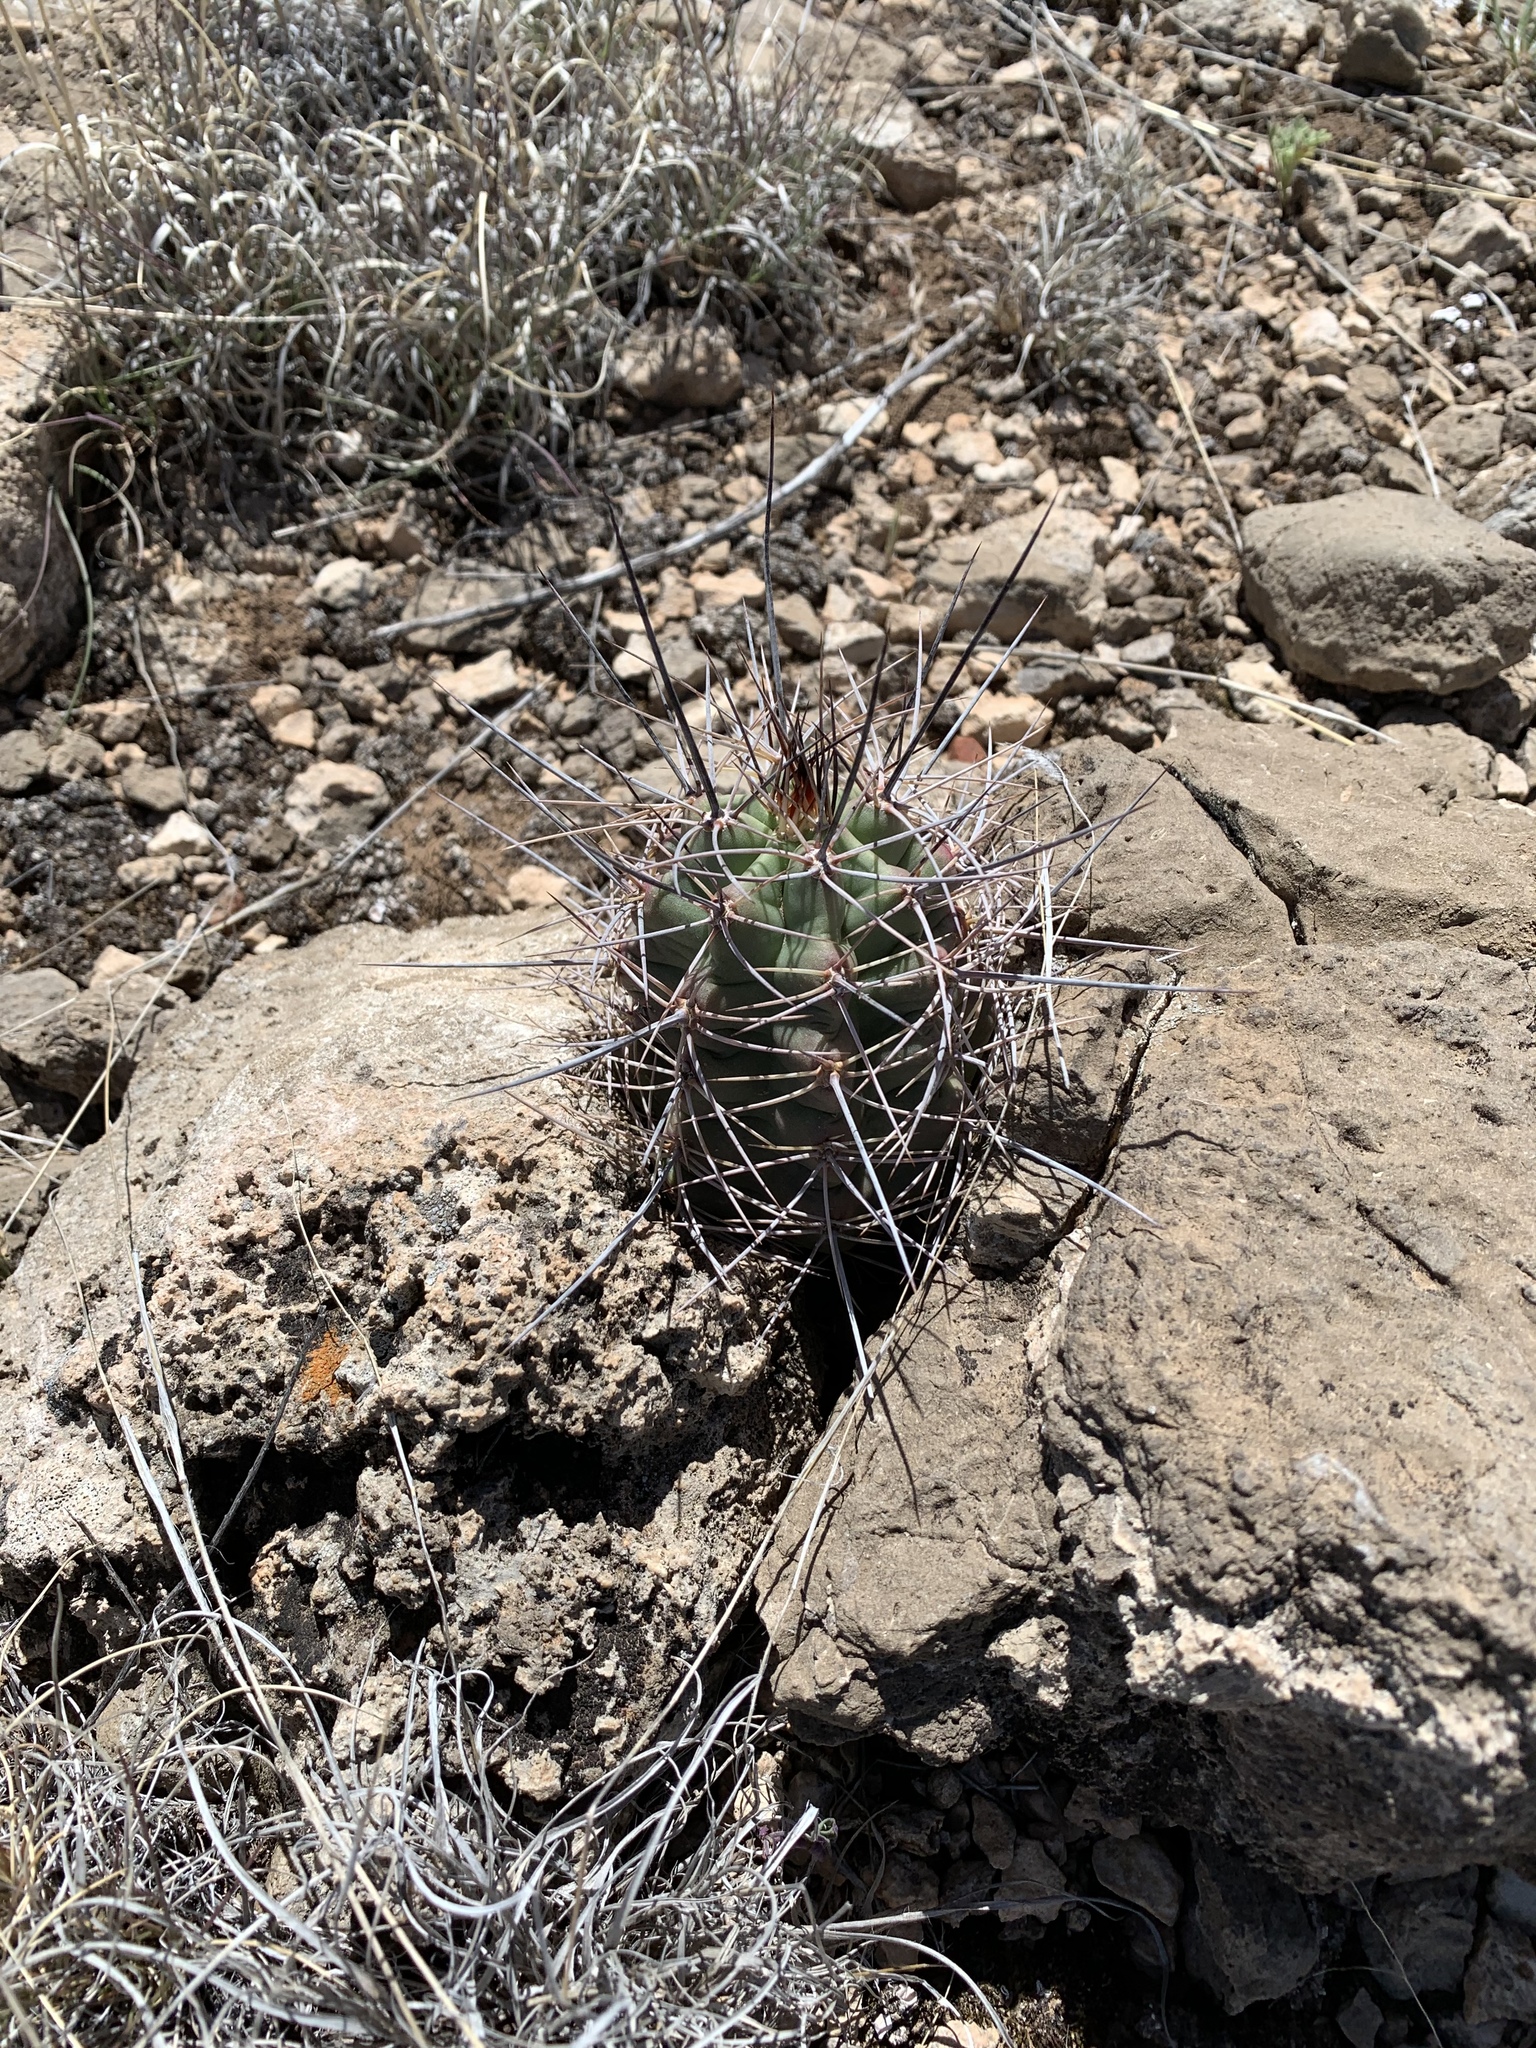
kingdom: Plantae
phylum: Tracheophyta
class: Magnoliopsida
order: Caryophyllales
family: Cactaceae
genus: Echinocereus
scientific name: Echinocereus coccineus
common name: Scarlet hedgehog cactus
